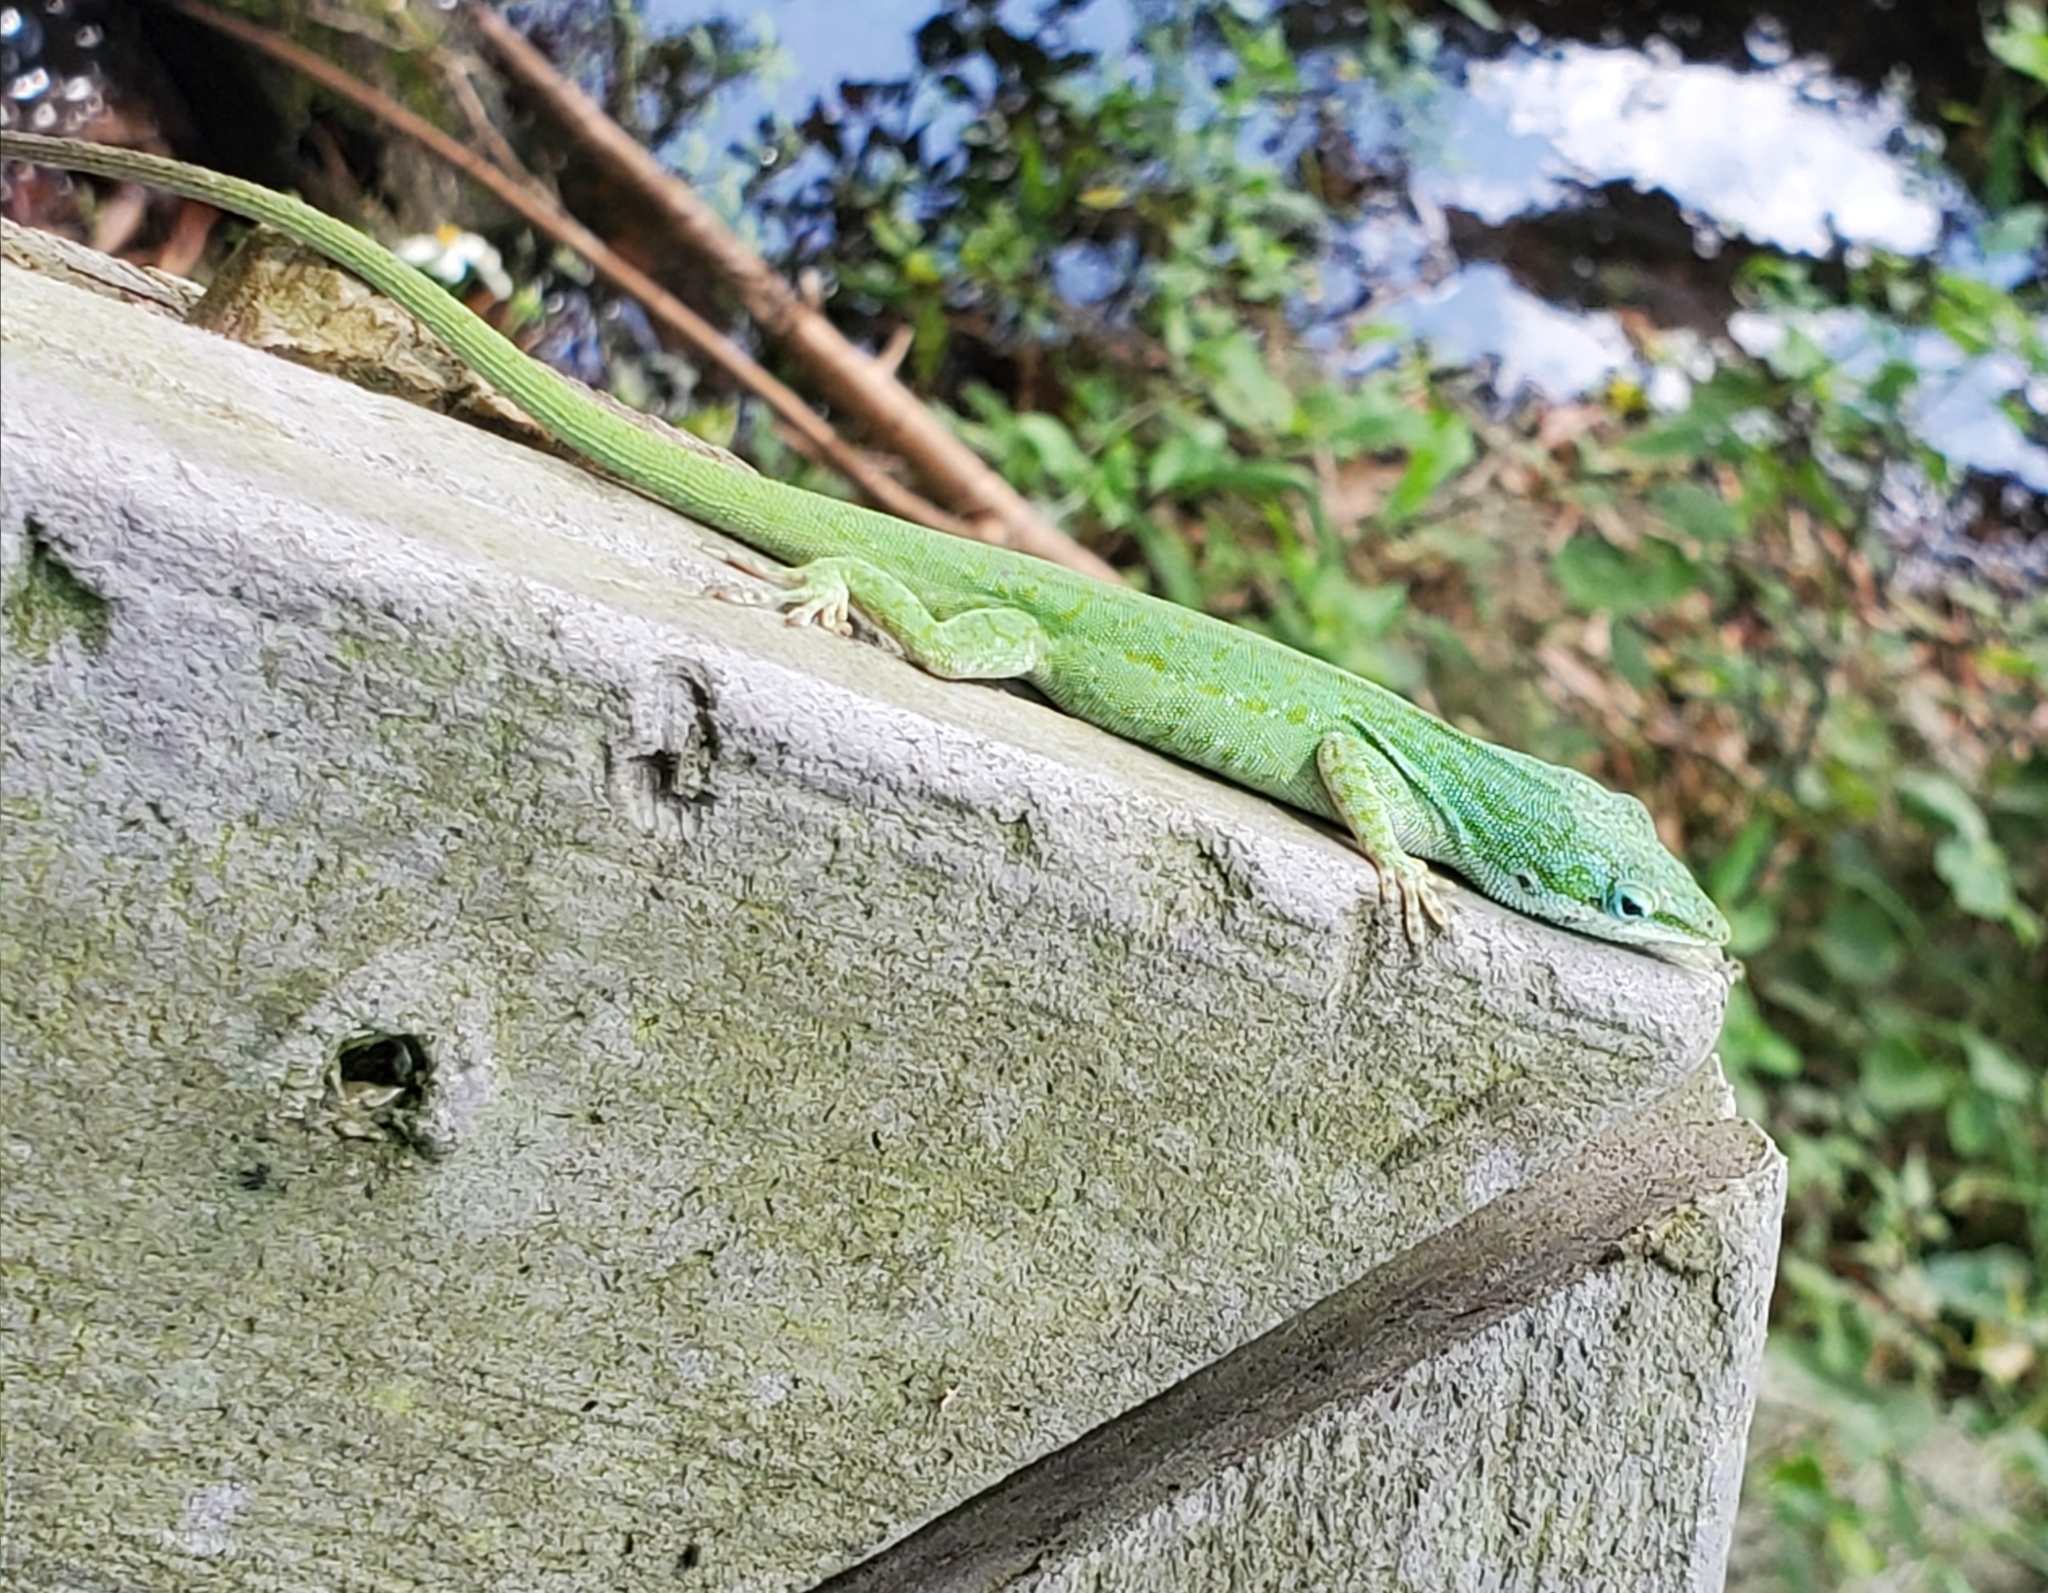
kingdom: Animalia
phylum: Chordata
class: Squamata
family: Dactyloidae
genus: Anolis
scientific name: Anolis carolinensis
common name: Green anole
